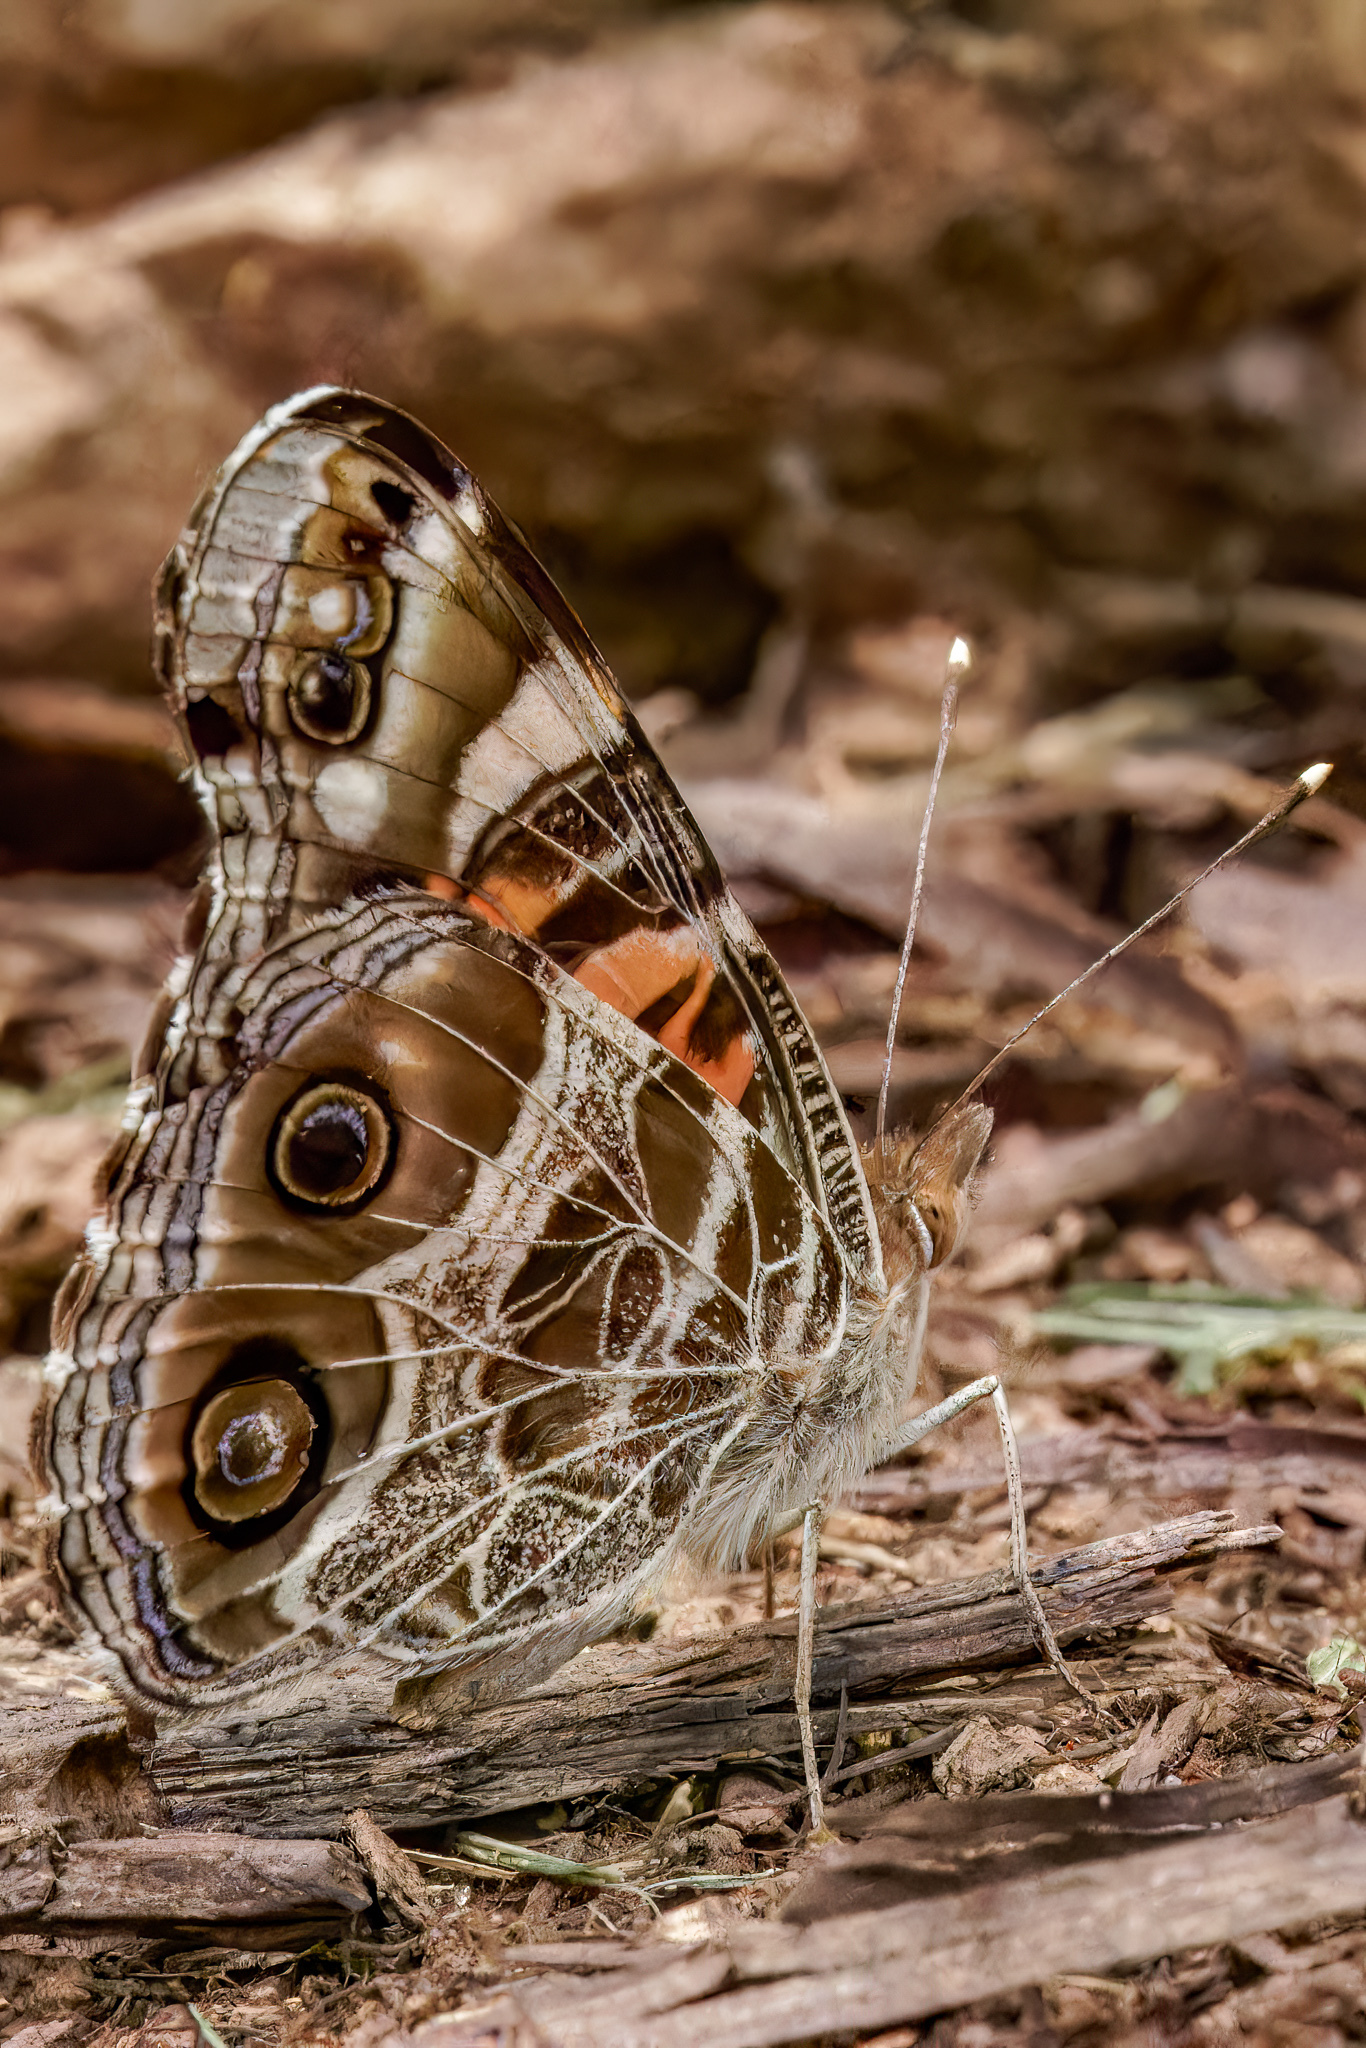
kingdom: Animalia
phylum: Arthropoda
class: Insecta
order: Lepidoptera
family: Nymphalidae
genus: Vanessa
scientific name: Vanessa virginiensis
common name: American lady
